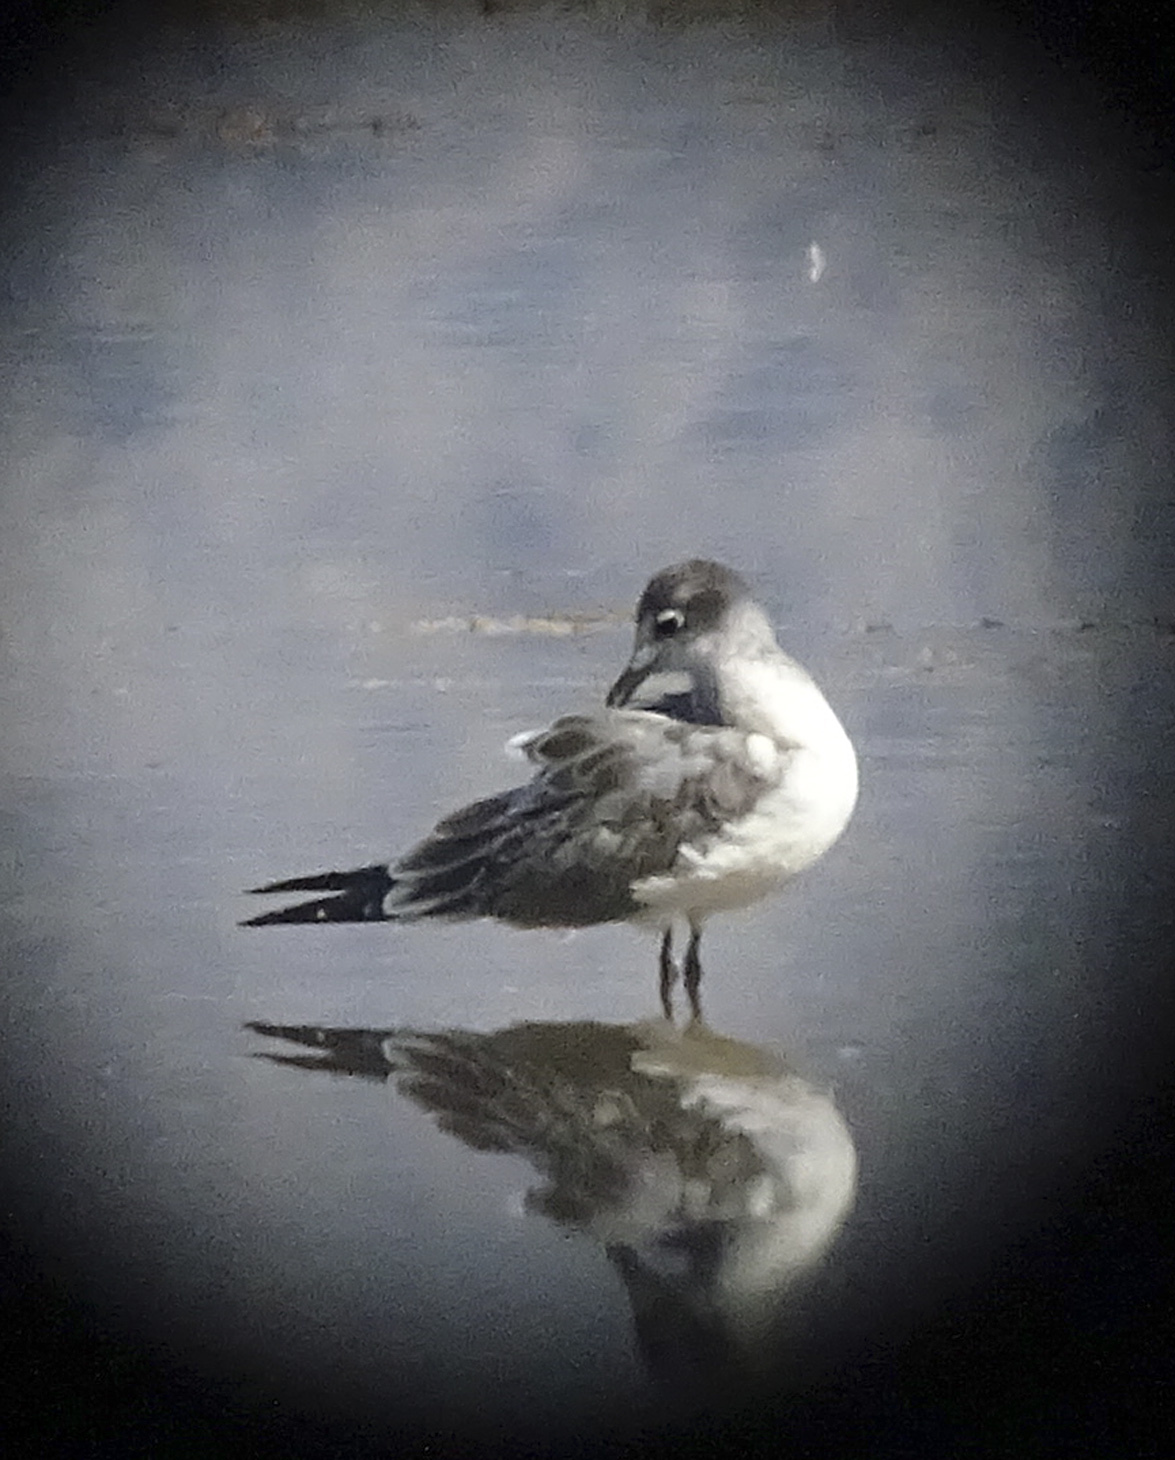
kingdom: Animalia
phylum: Chordata
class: Aves
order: Charadriiformes
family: Laridae
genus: Leucophaeus
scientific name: Leucophaeus pipixcan
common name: Franklin's gull
